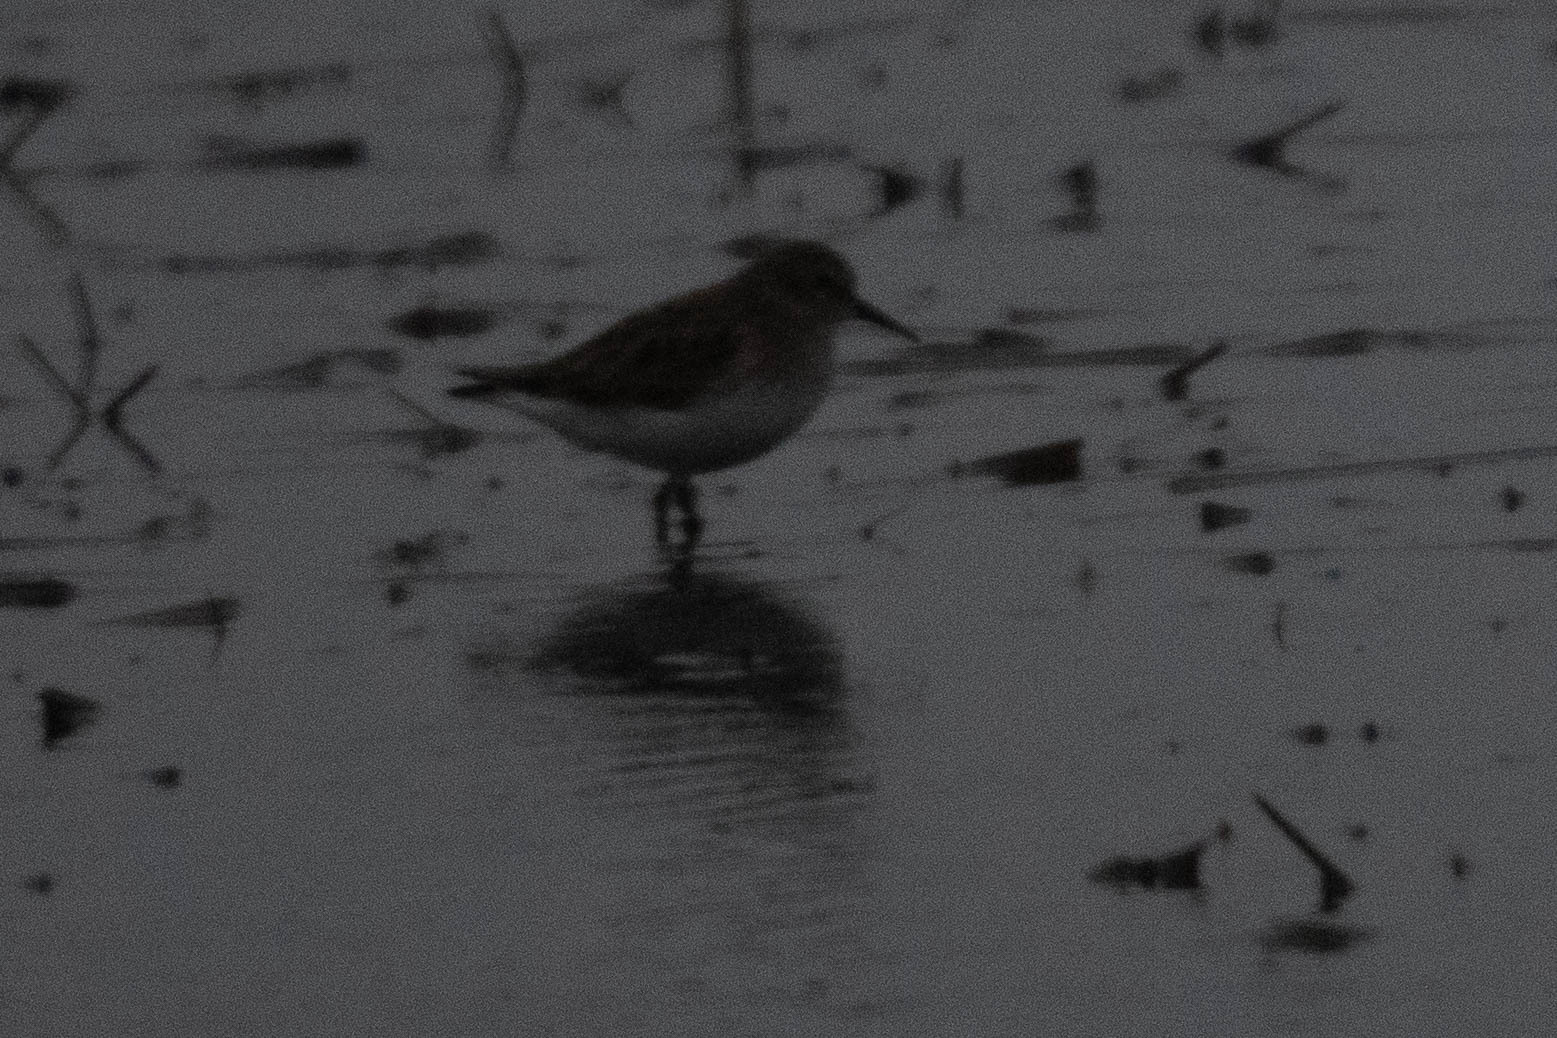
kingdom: Animalia
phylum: Chordata
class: Aves
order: Charadriiformes
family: Scolopacidae
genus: Calidris
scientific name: Calidris minutilla
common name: Least sandpiper
